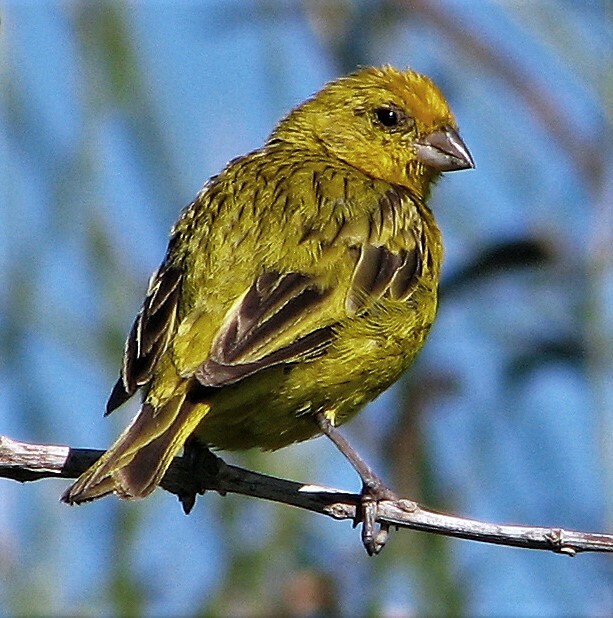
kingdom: Animalia
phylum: Chordata
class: Aves
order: Passeriformes
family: Thraupidae
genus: Sicalis
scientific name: Sicalis flaveola
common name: Saffron finch
